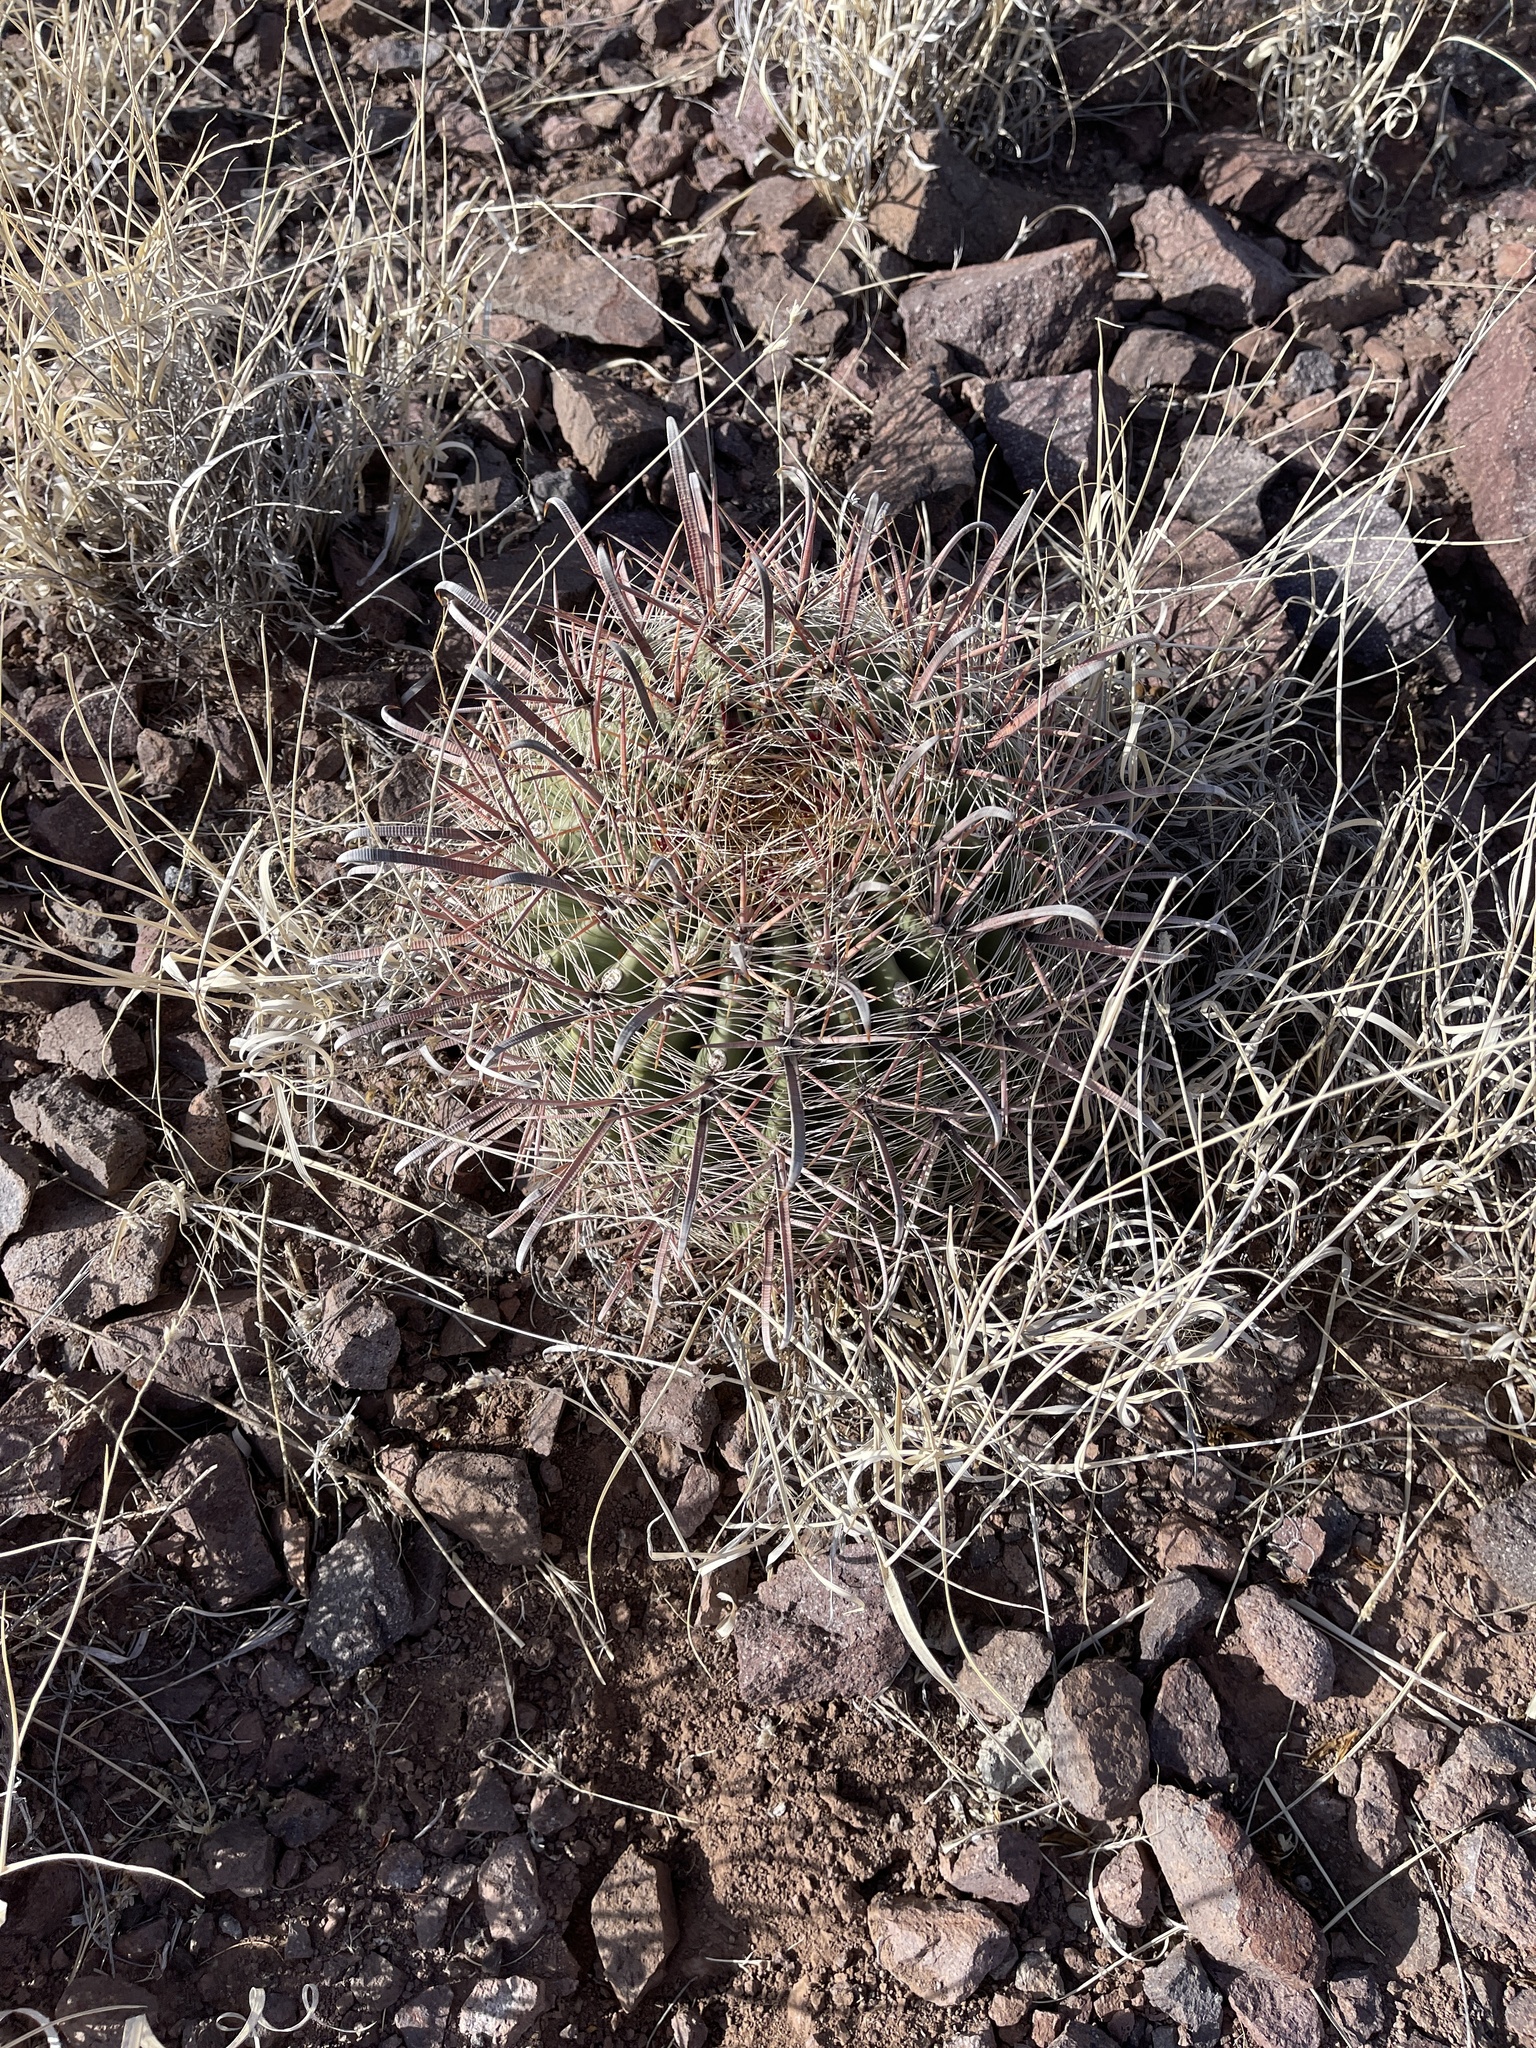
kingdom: Plantae
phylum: Tracheophyta
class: Magnoliopsida
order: Caryophyllales
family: Cactaceae
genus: Ferocactus
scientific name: Ferocactus wislizeni
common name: Candy barrel cactus
